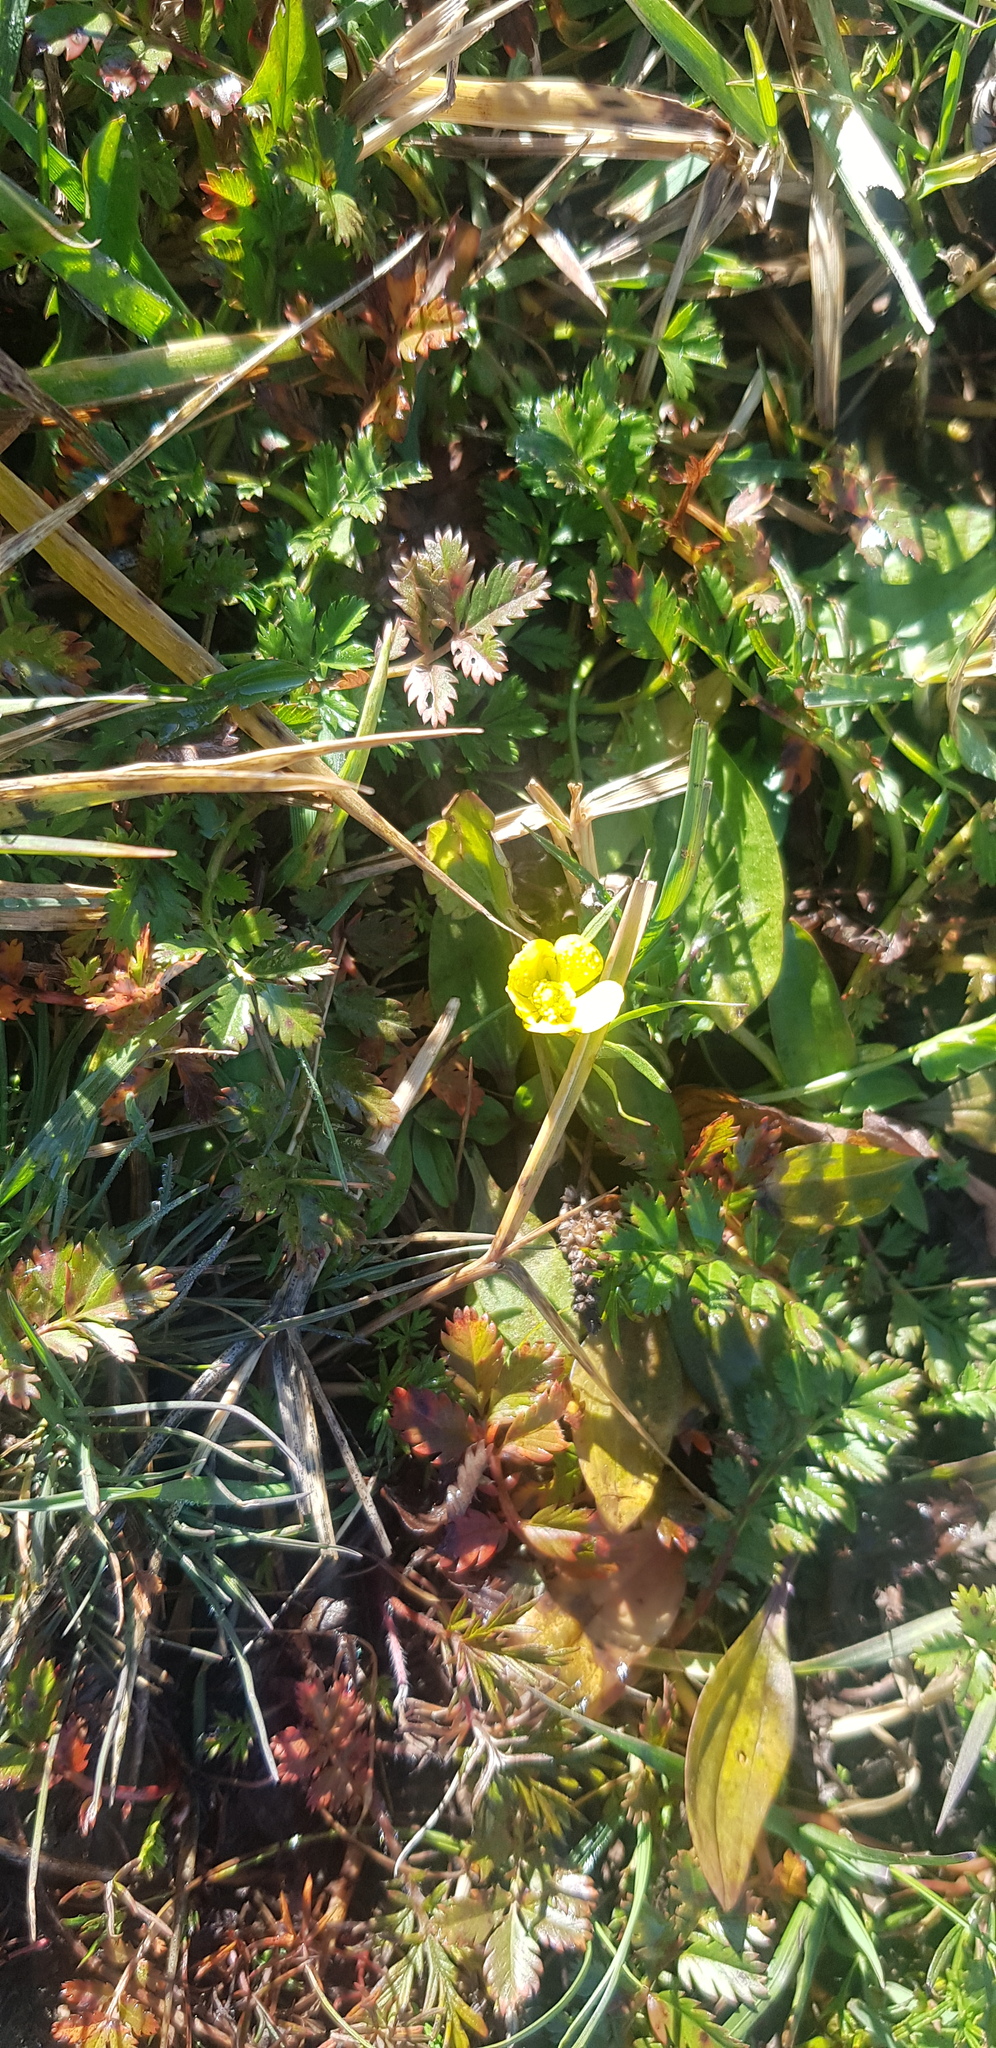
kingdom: Plantae
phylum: Tracheophyta
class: Magnoliopsida
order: Rosales
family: Rosaceae
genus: Argentina
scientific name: Argentina anserina
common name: Common silverweed
